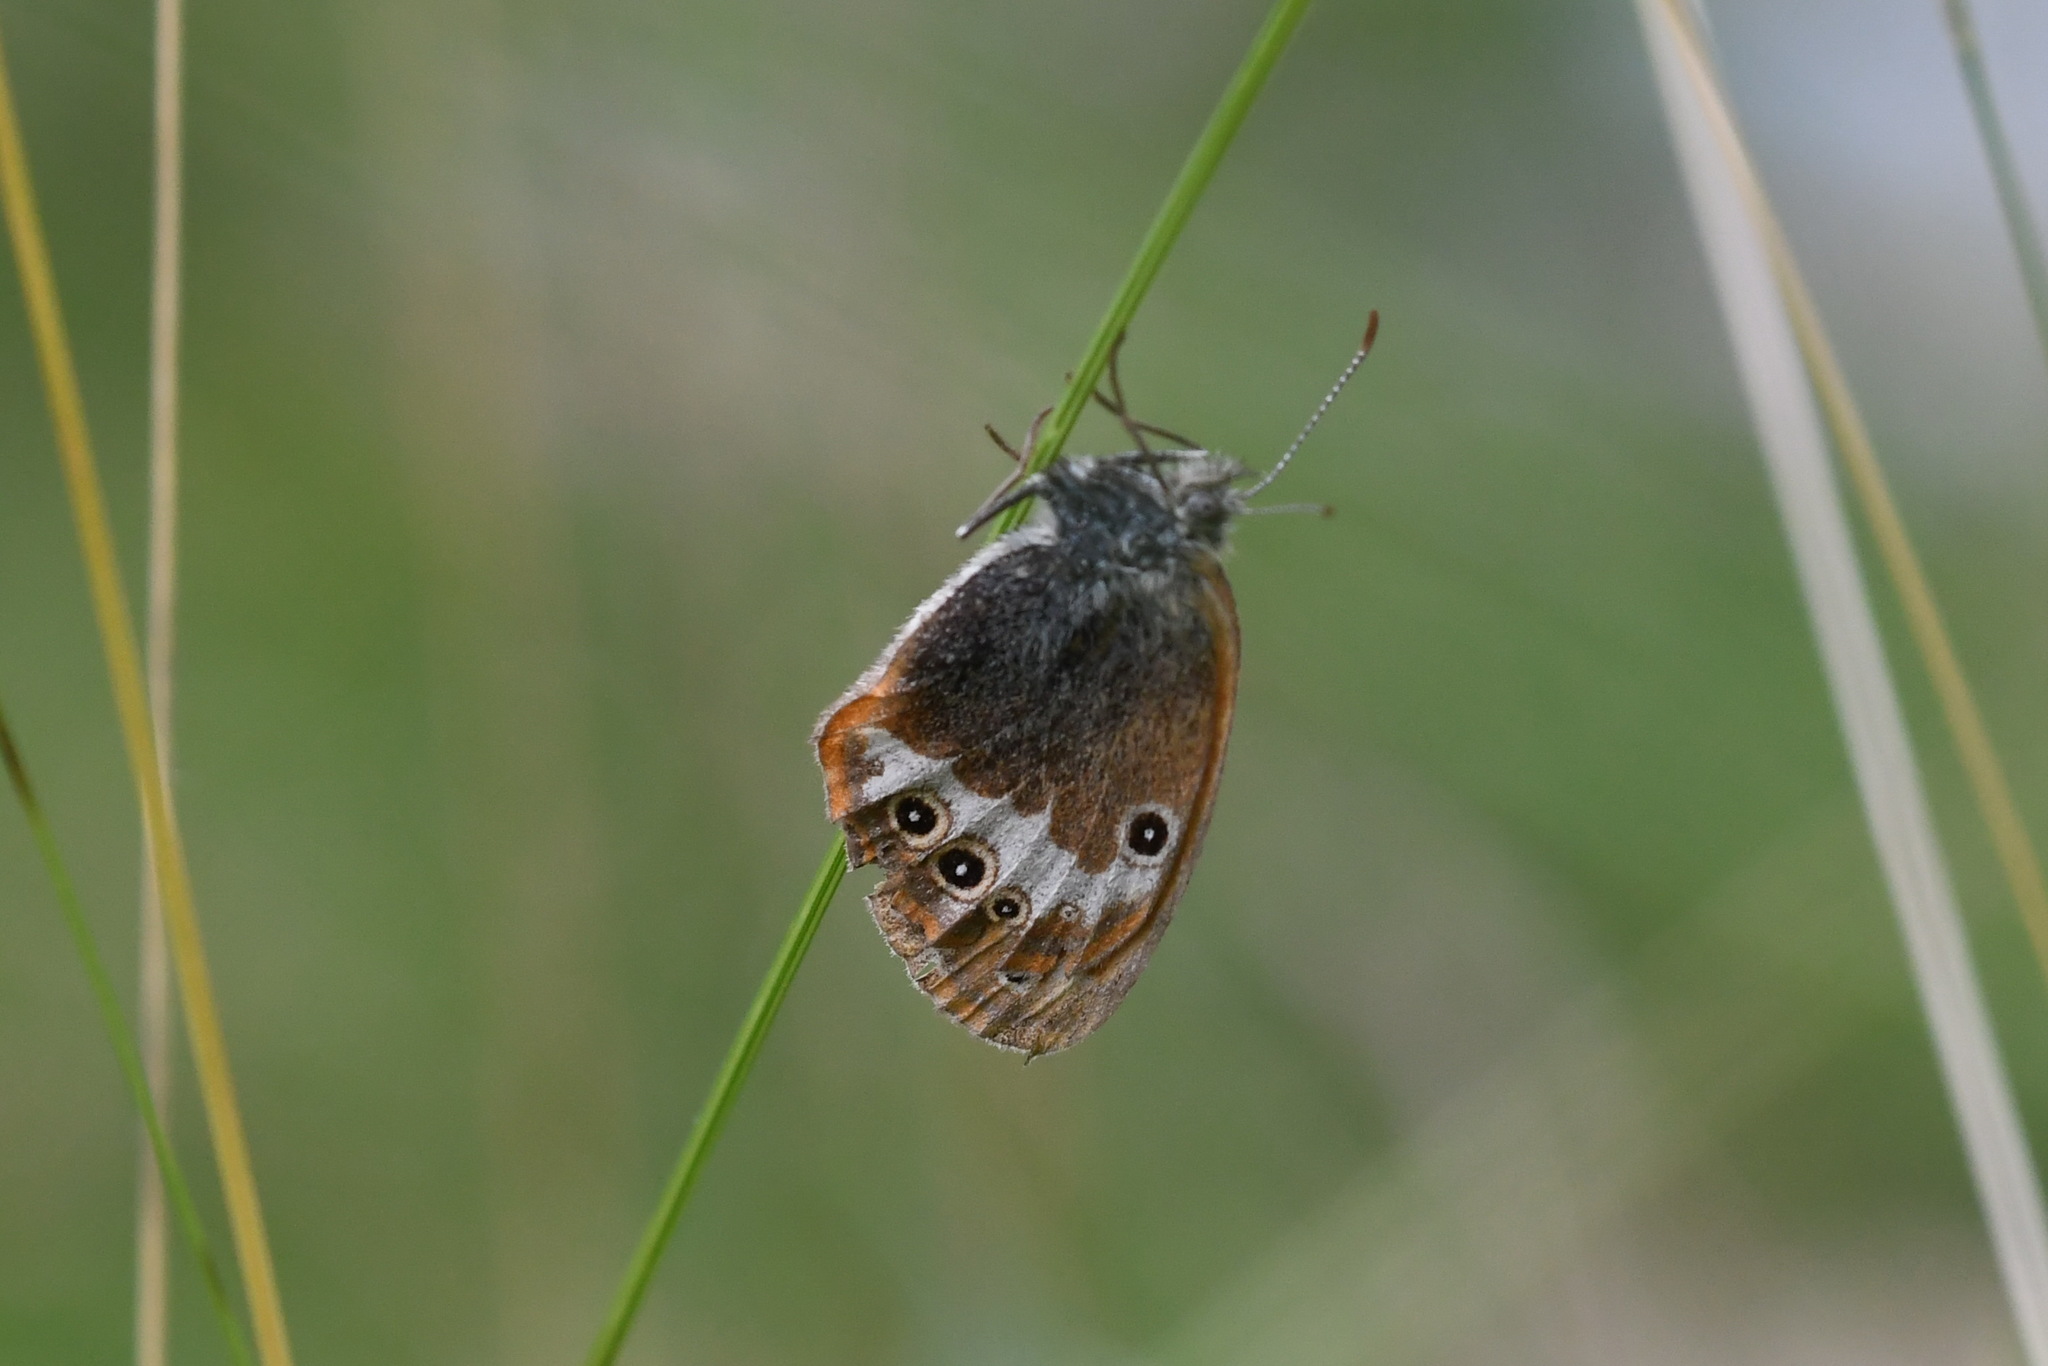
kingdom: Animalia
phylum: Arthropoda
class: Insecta
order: Lepidoptera
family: Nymphalidae
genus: Coenonympha
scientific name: Coenonympha arcania
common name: Pearly heath
